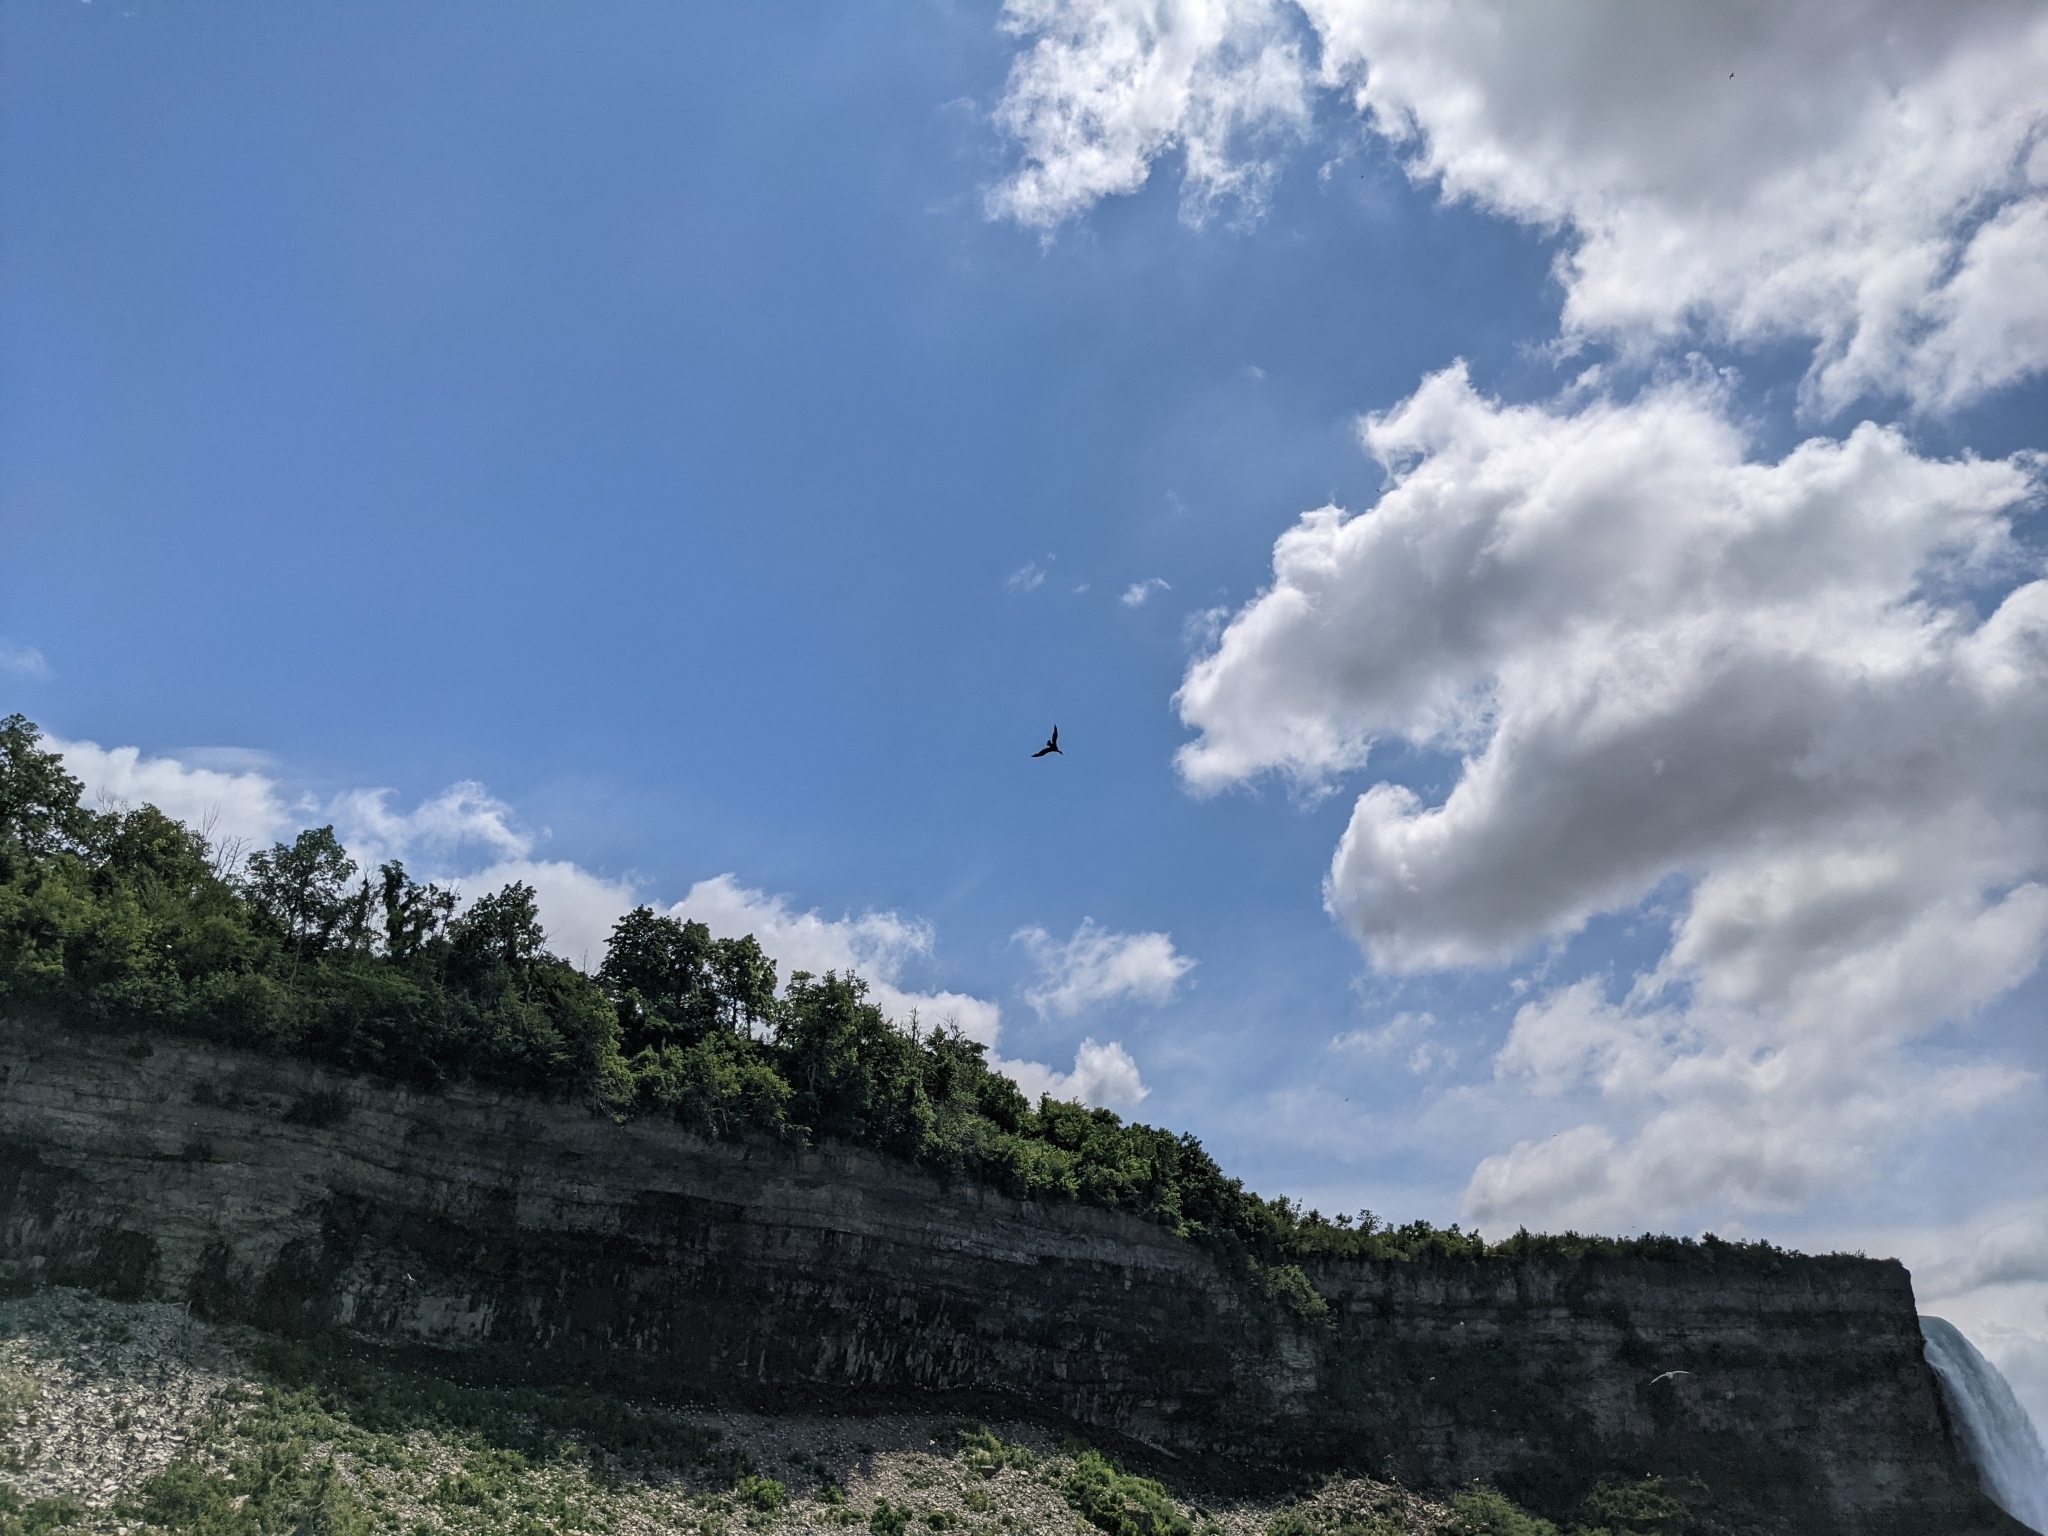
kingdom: Animalia
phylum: Chordata
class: Aves
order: Suliformes
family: Phalacrocoracidae
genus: Phalacrocorax
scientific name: Phalacrocorax auritus
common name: Double-crested cormorant
